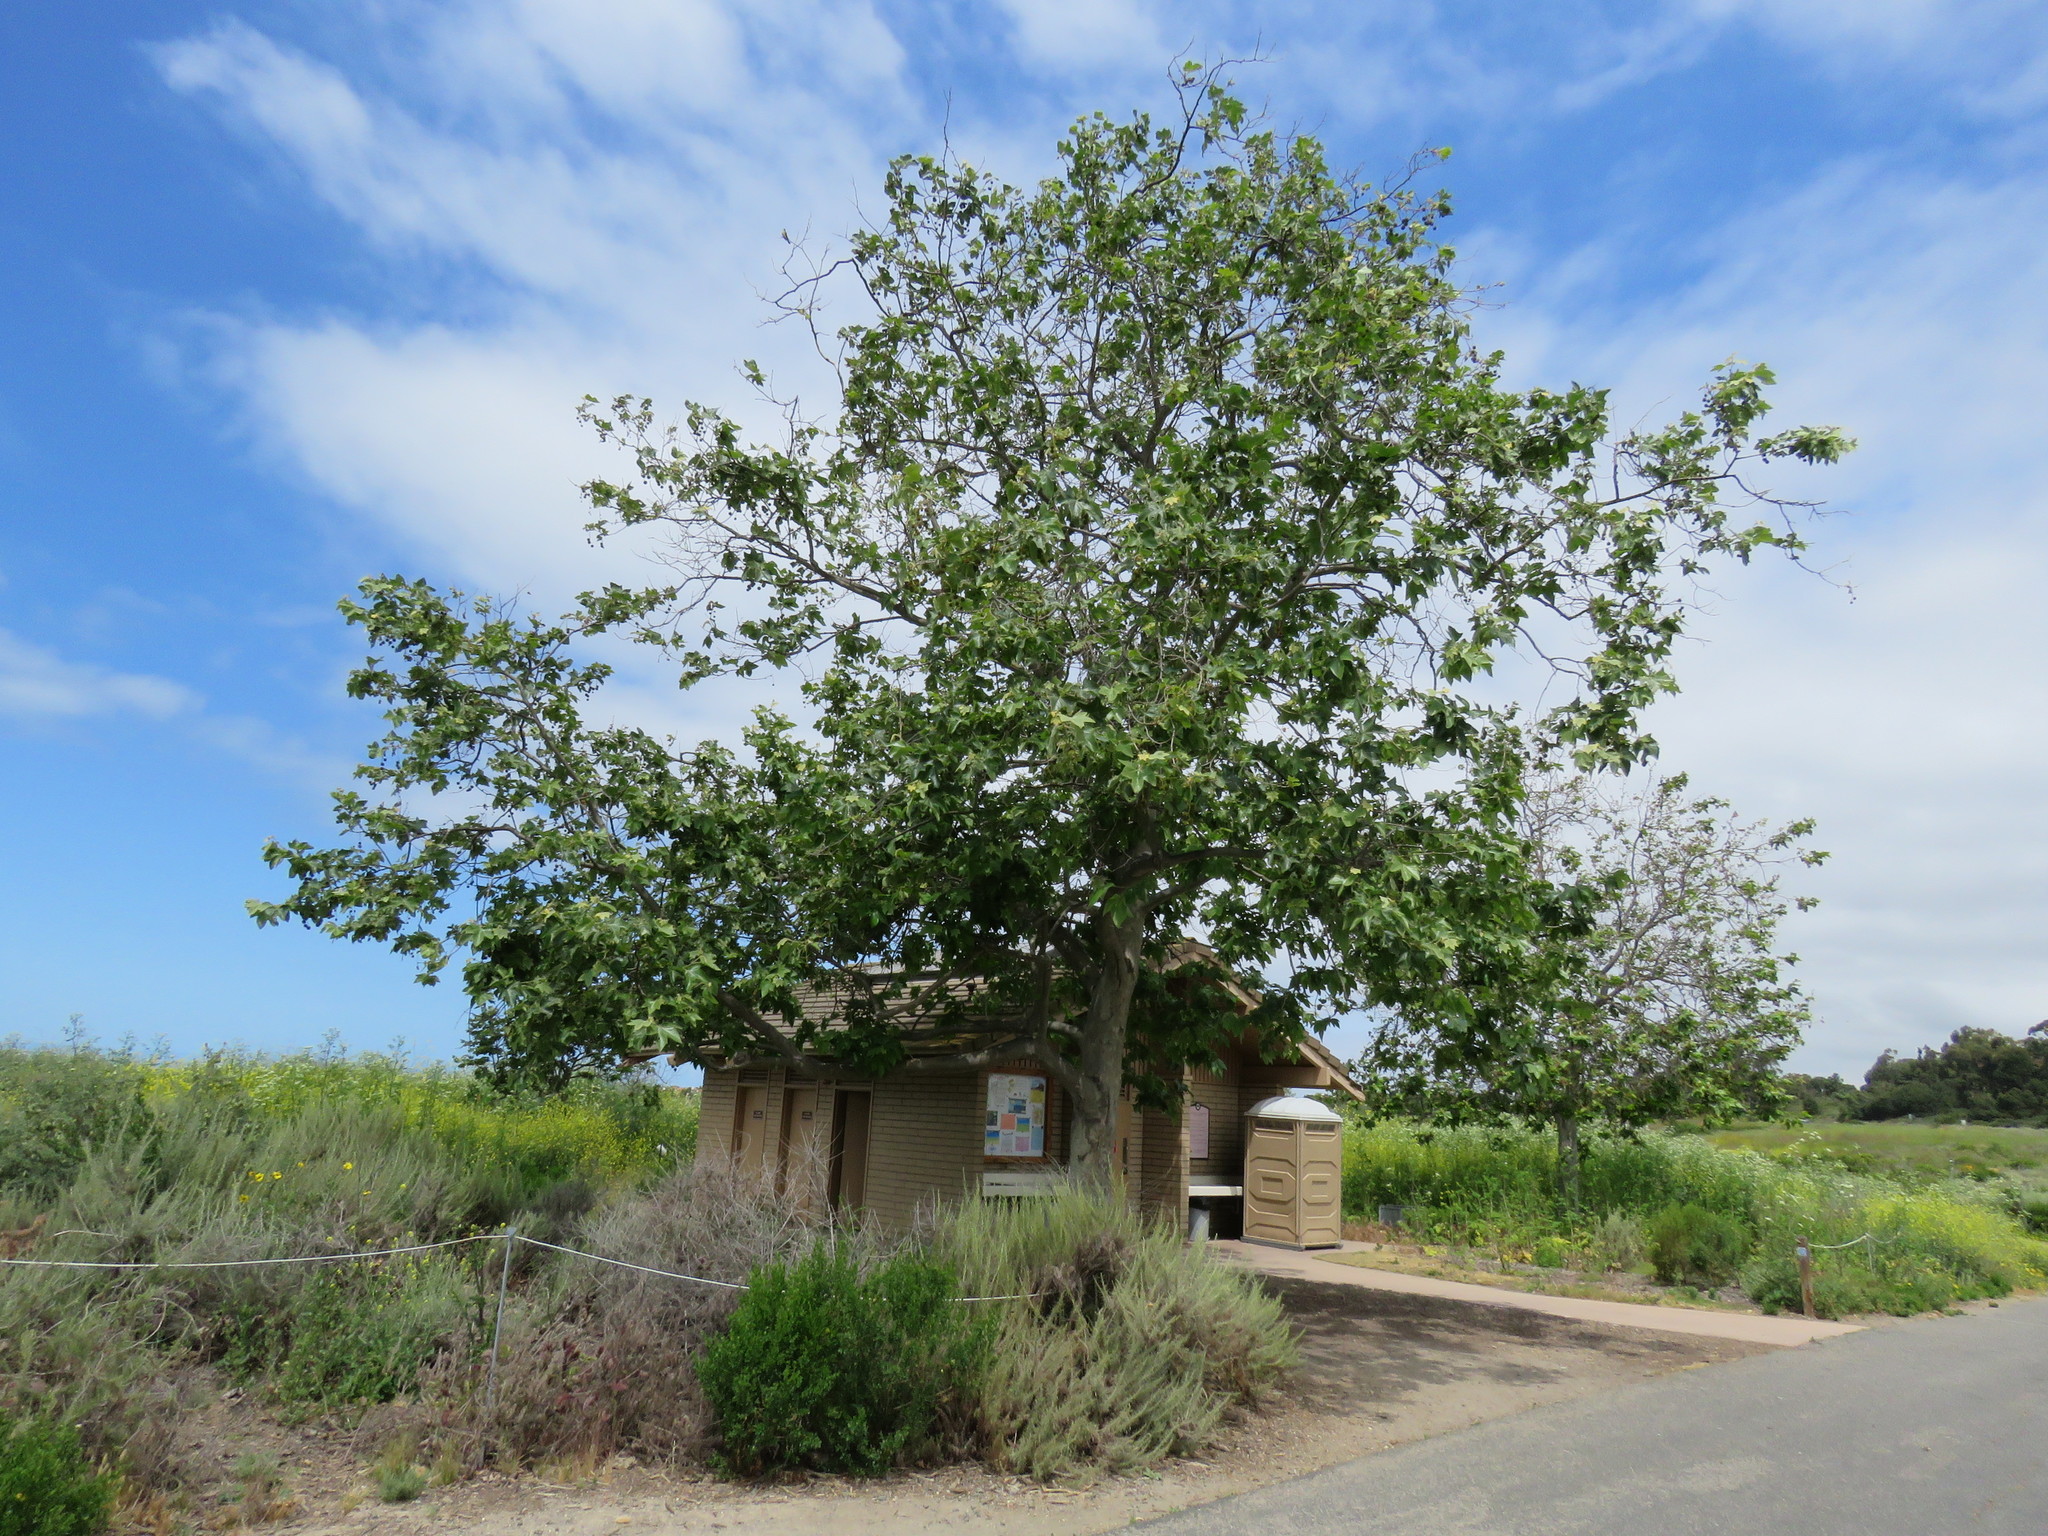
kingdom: Plantae
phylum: Tracheophyta
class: Magnoliopsida
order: Proteales
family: Platanaceae
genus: Platanus
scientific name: Platanus racemosa
